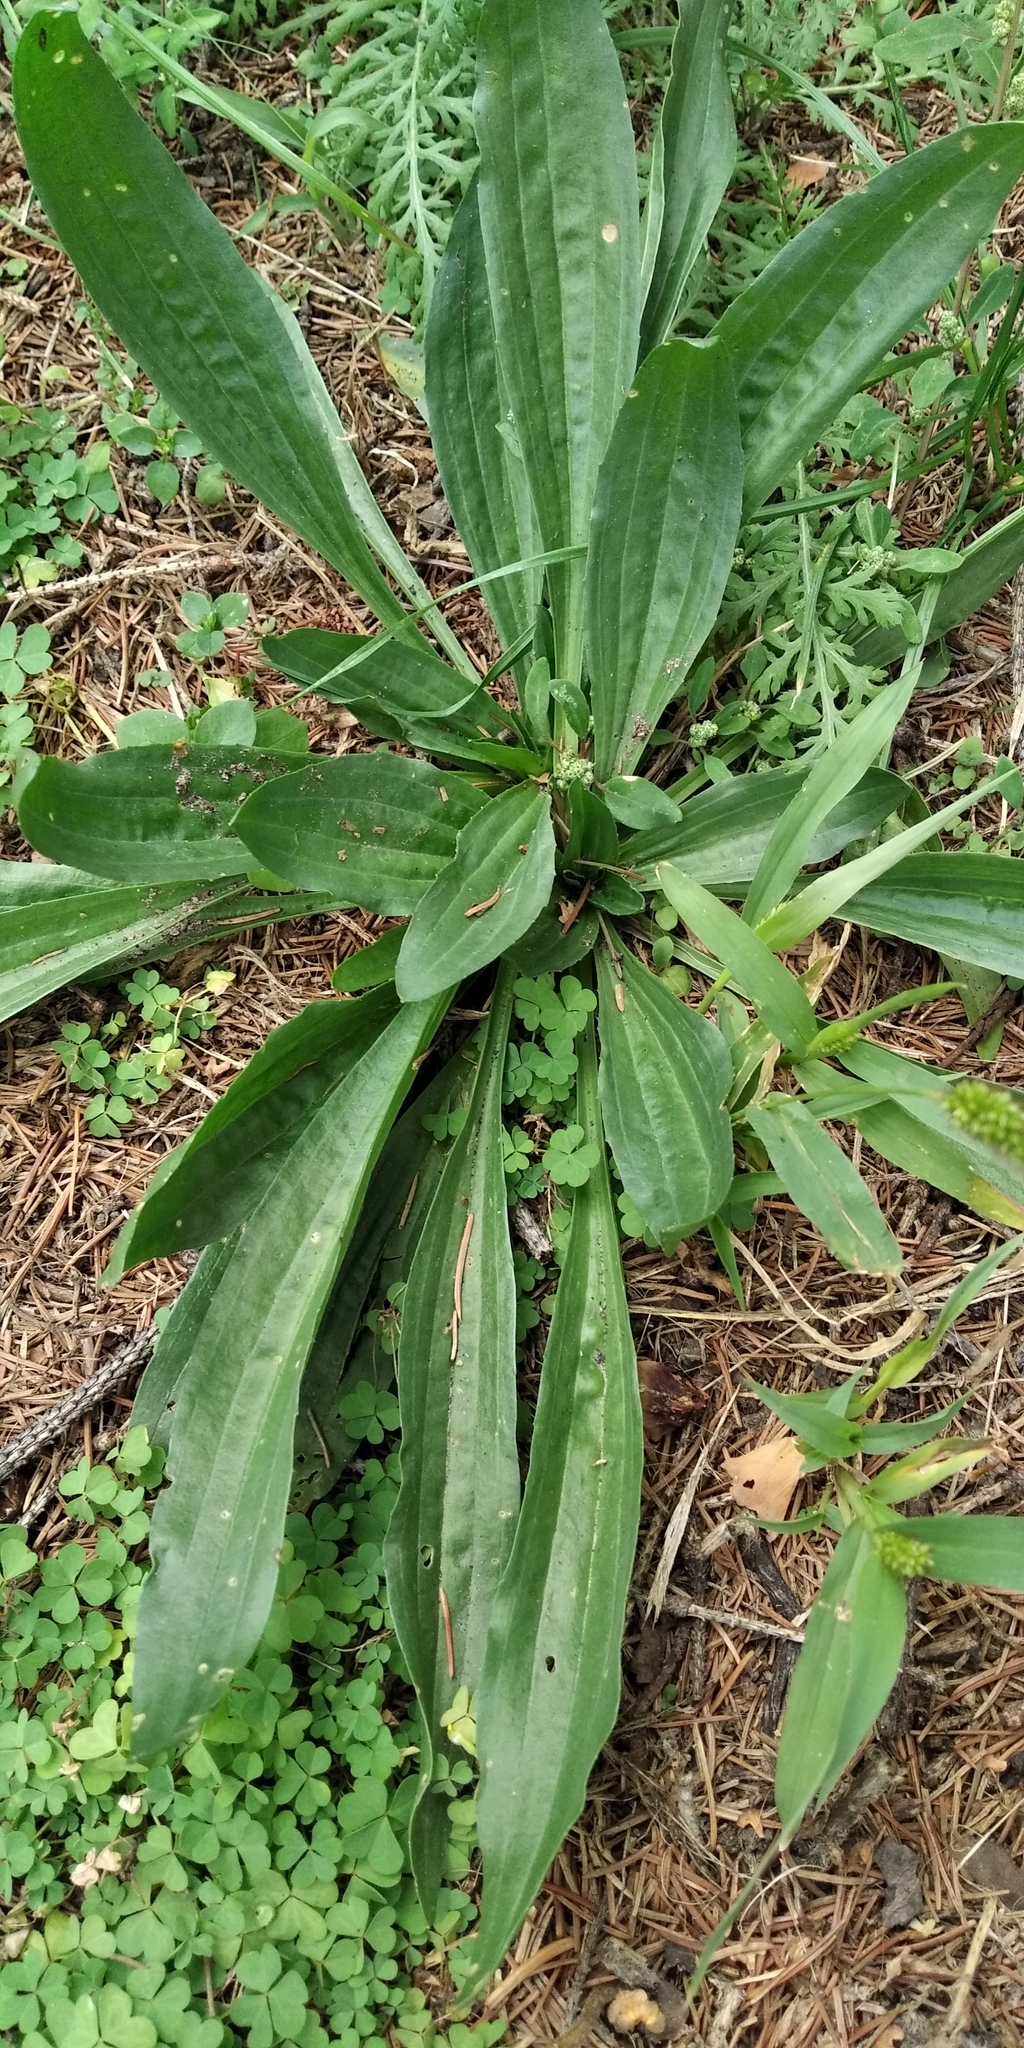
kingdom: Plantae
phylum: Tracheophyta
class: Magnoliopsida
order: Lamiales
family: Plantaginaceae
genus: Plantago
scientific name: Plantago lanceolata
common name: Ribwort plantain
